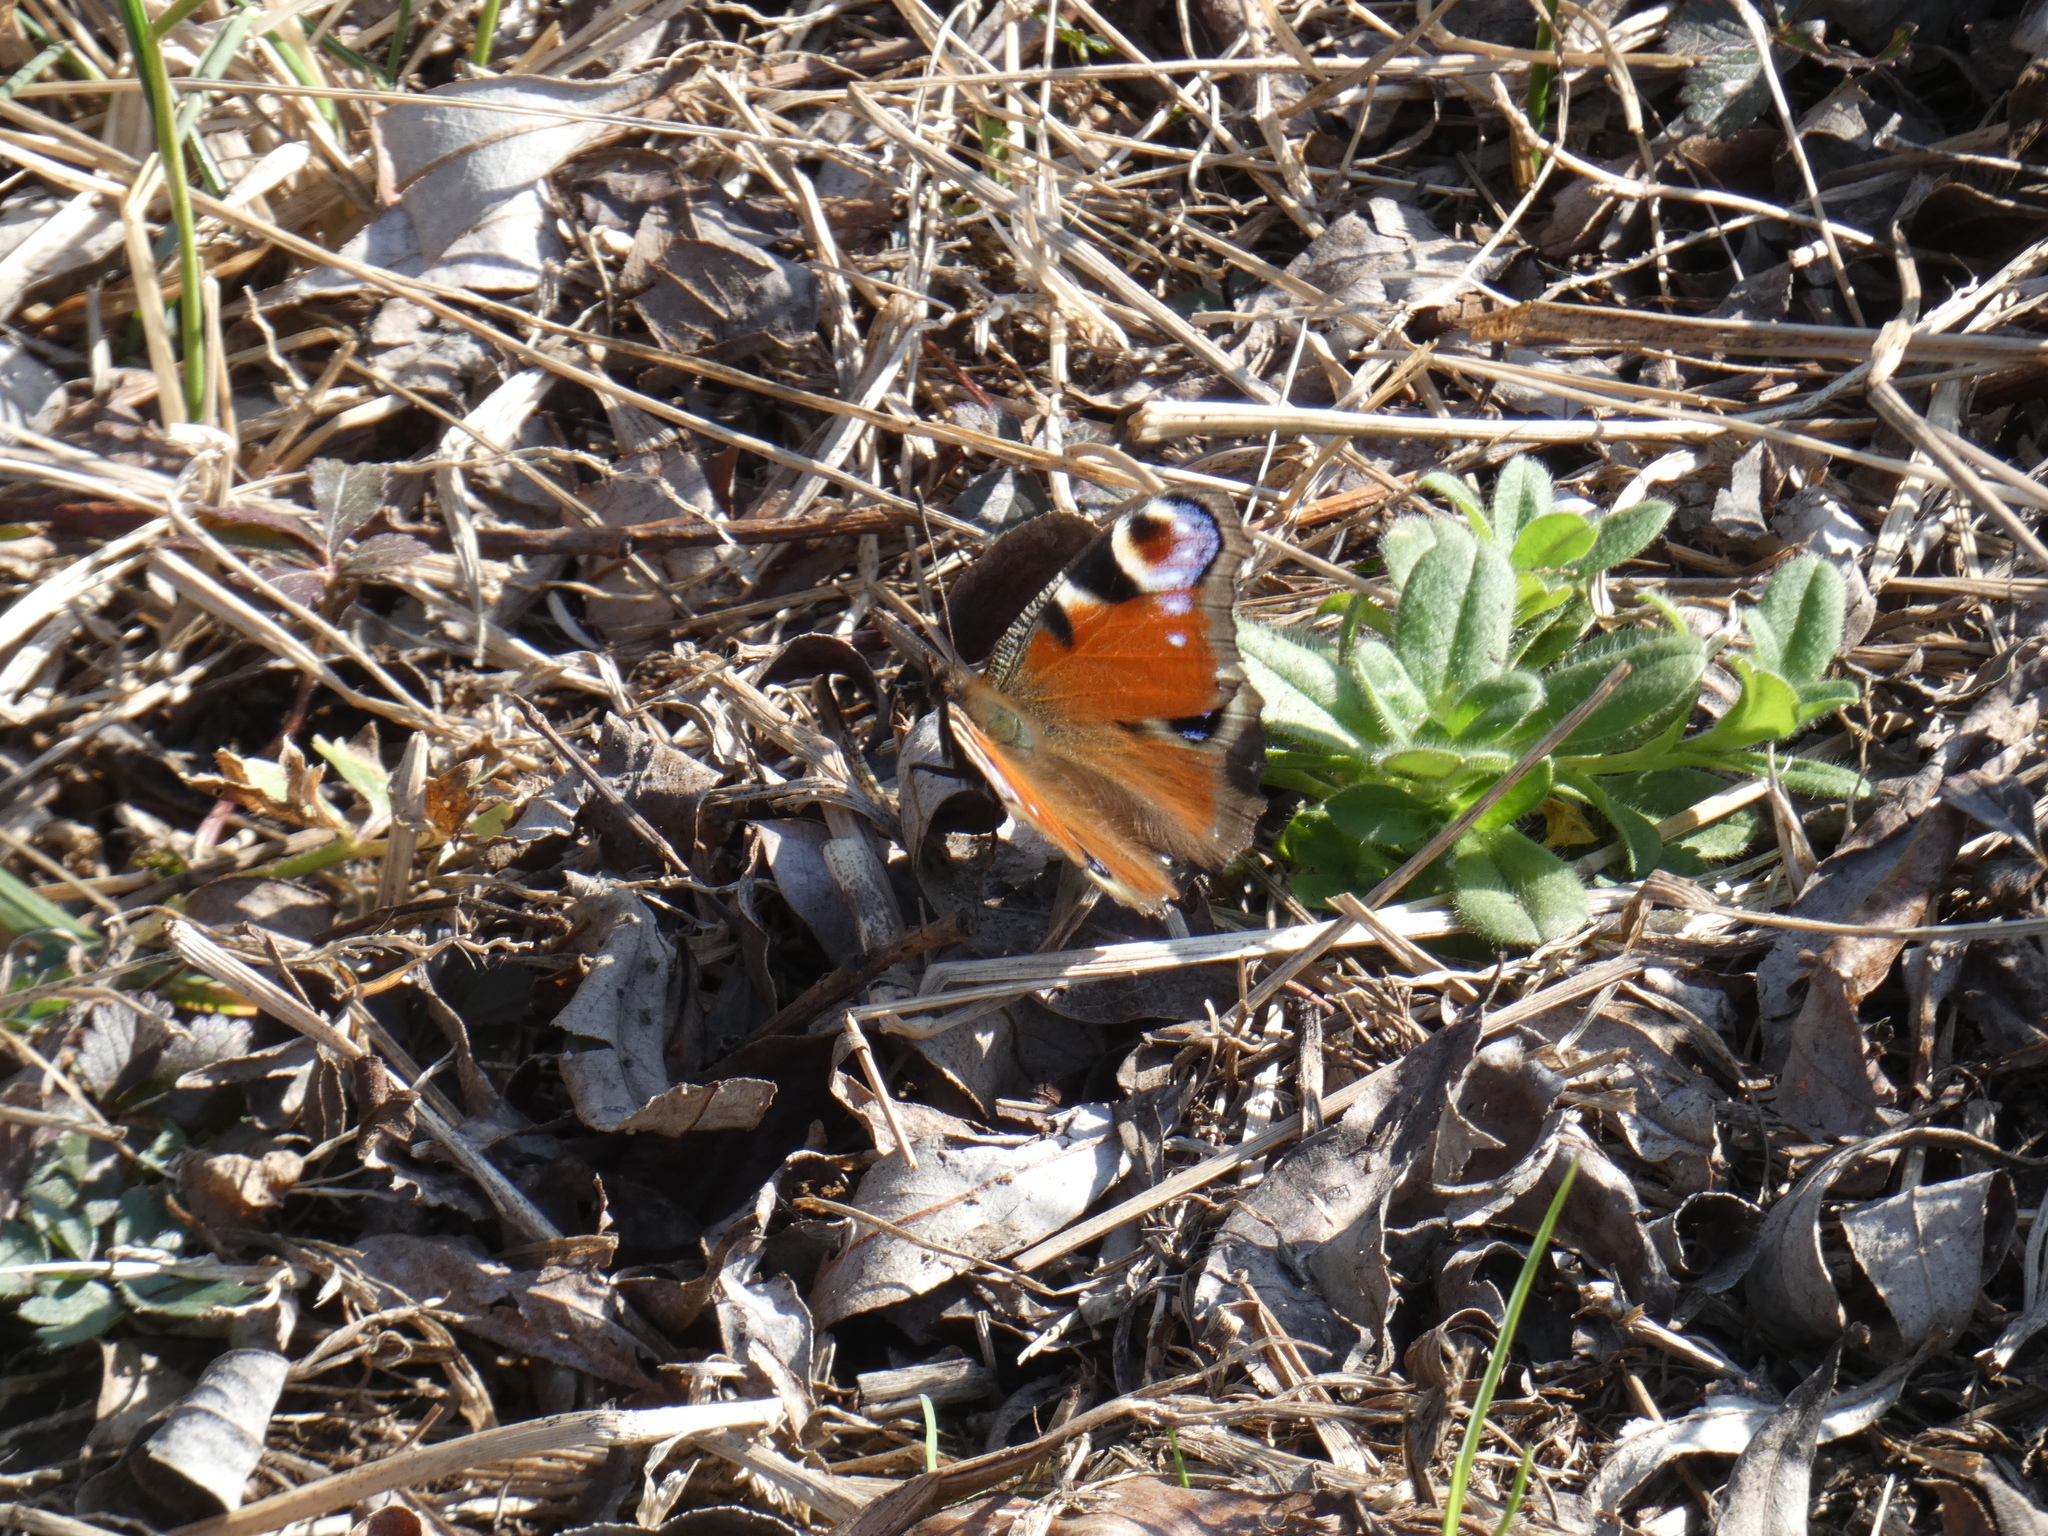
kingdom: Animalia
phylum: Arthropoda
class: Insecta
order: Lepidoptera
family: Nymphalidae
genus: Aglais
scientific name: Aglais io
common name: Peacock
